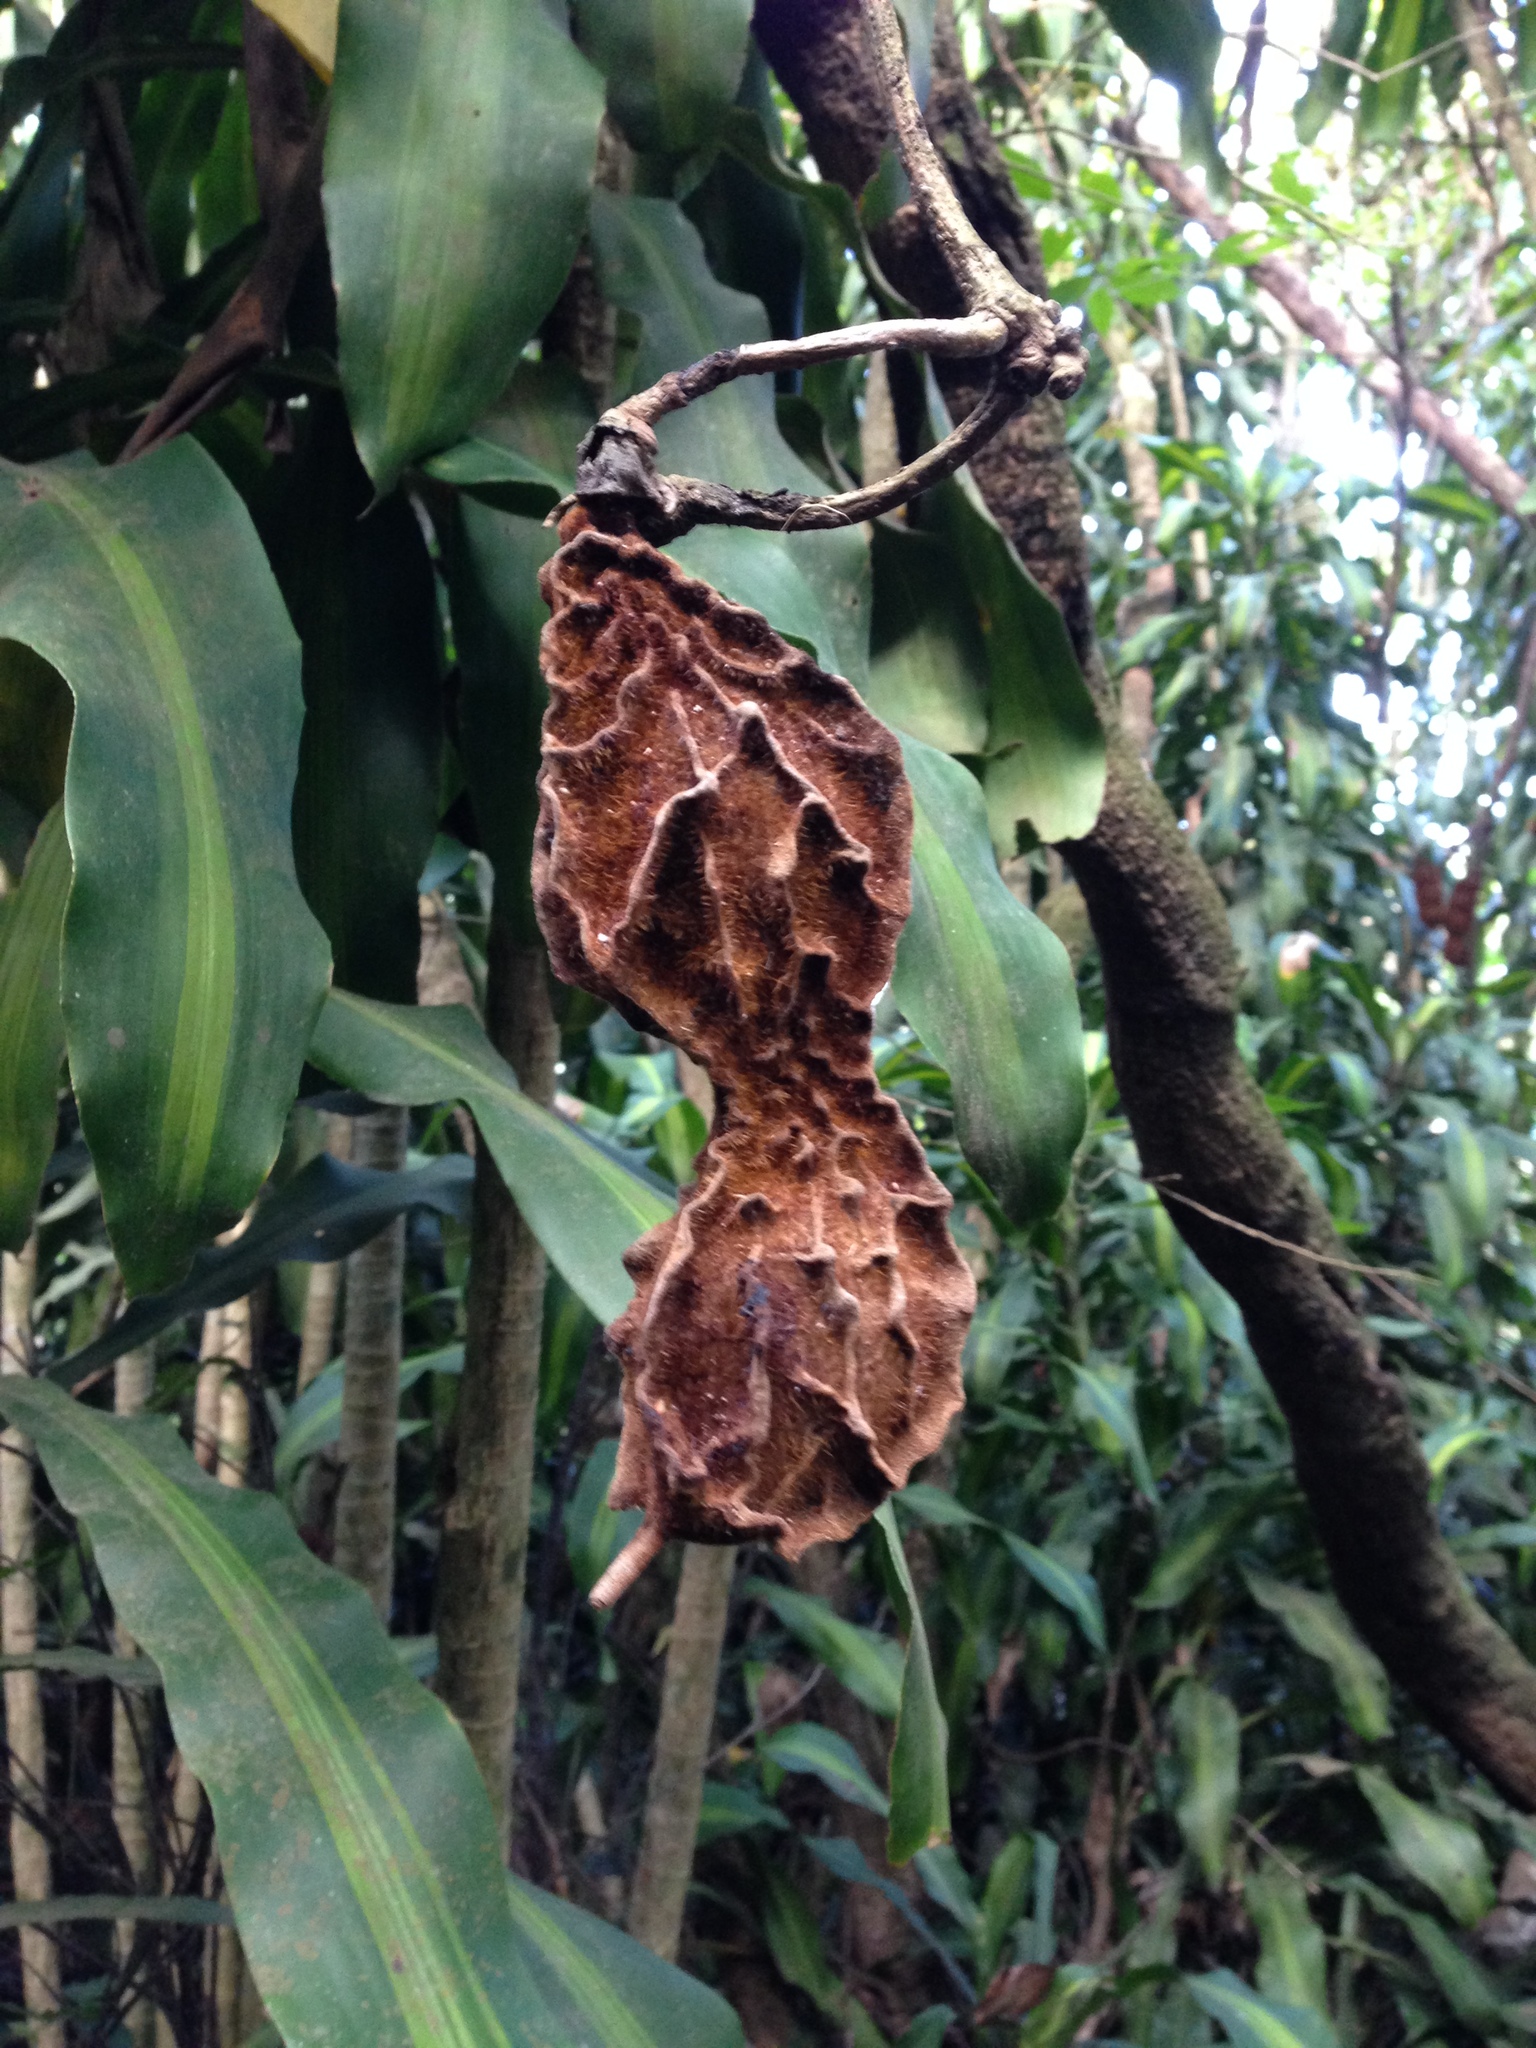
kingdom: Plantae
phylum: Tracheophyta
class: Magnoliopsida
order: Fabales
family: Fabaceae
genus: Mucuna
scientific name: Mucuna monticola
